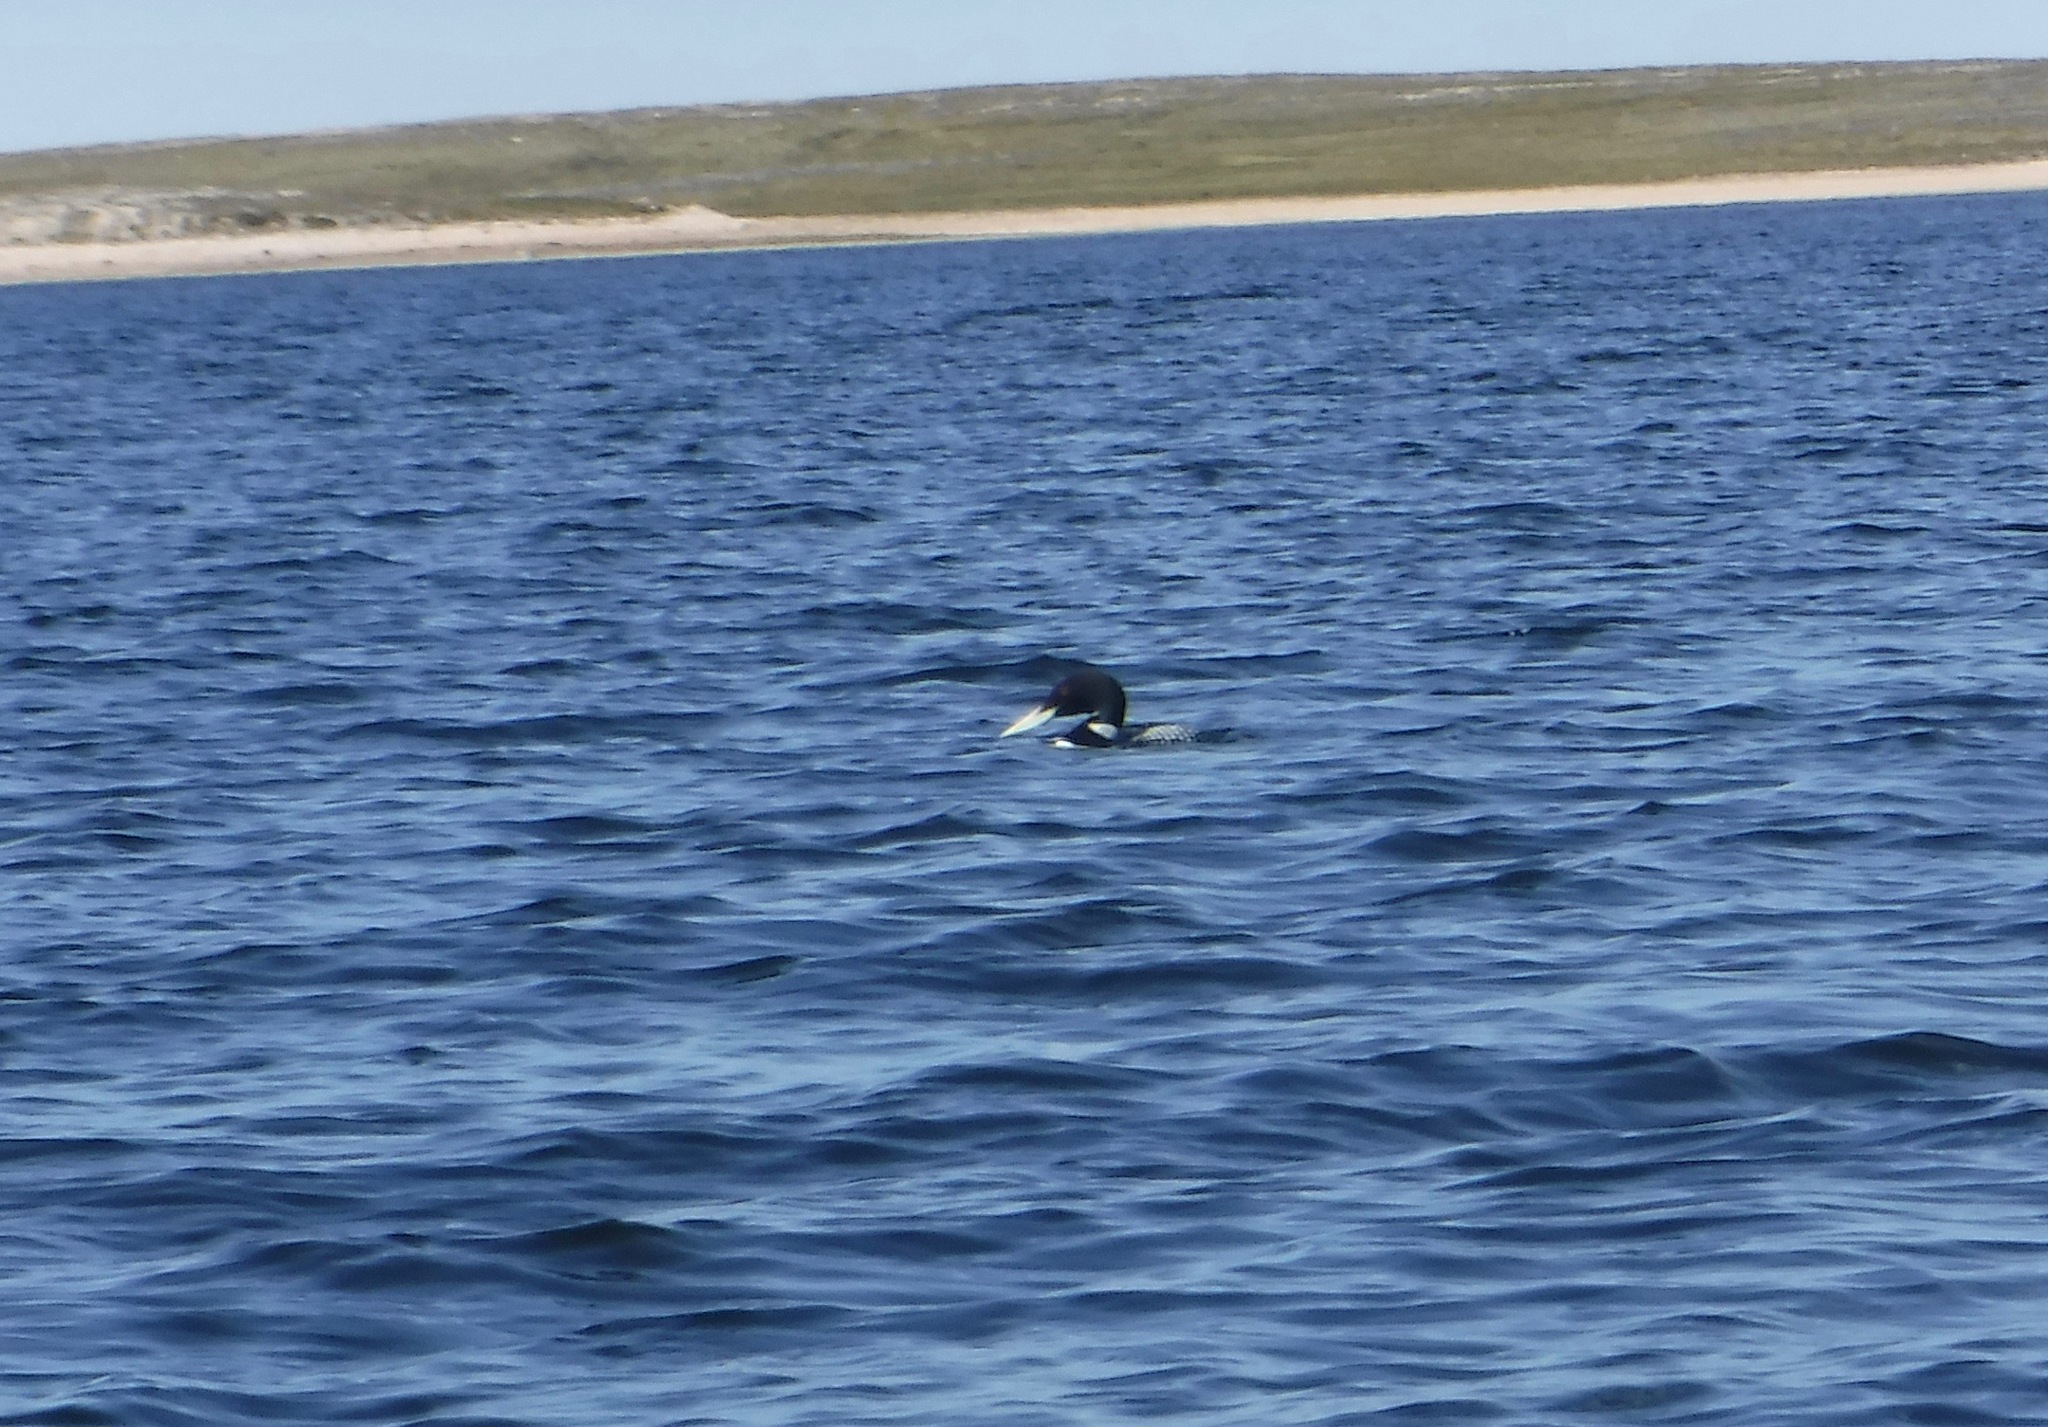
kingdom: Animalia
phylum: Chordata
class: Aves
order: Gaviiformes
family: Gaviidae
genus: Gavia
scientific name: Gavia adamsii
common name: Yellow-billed loon
